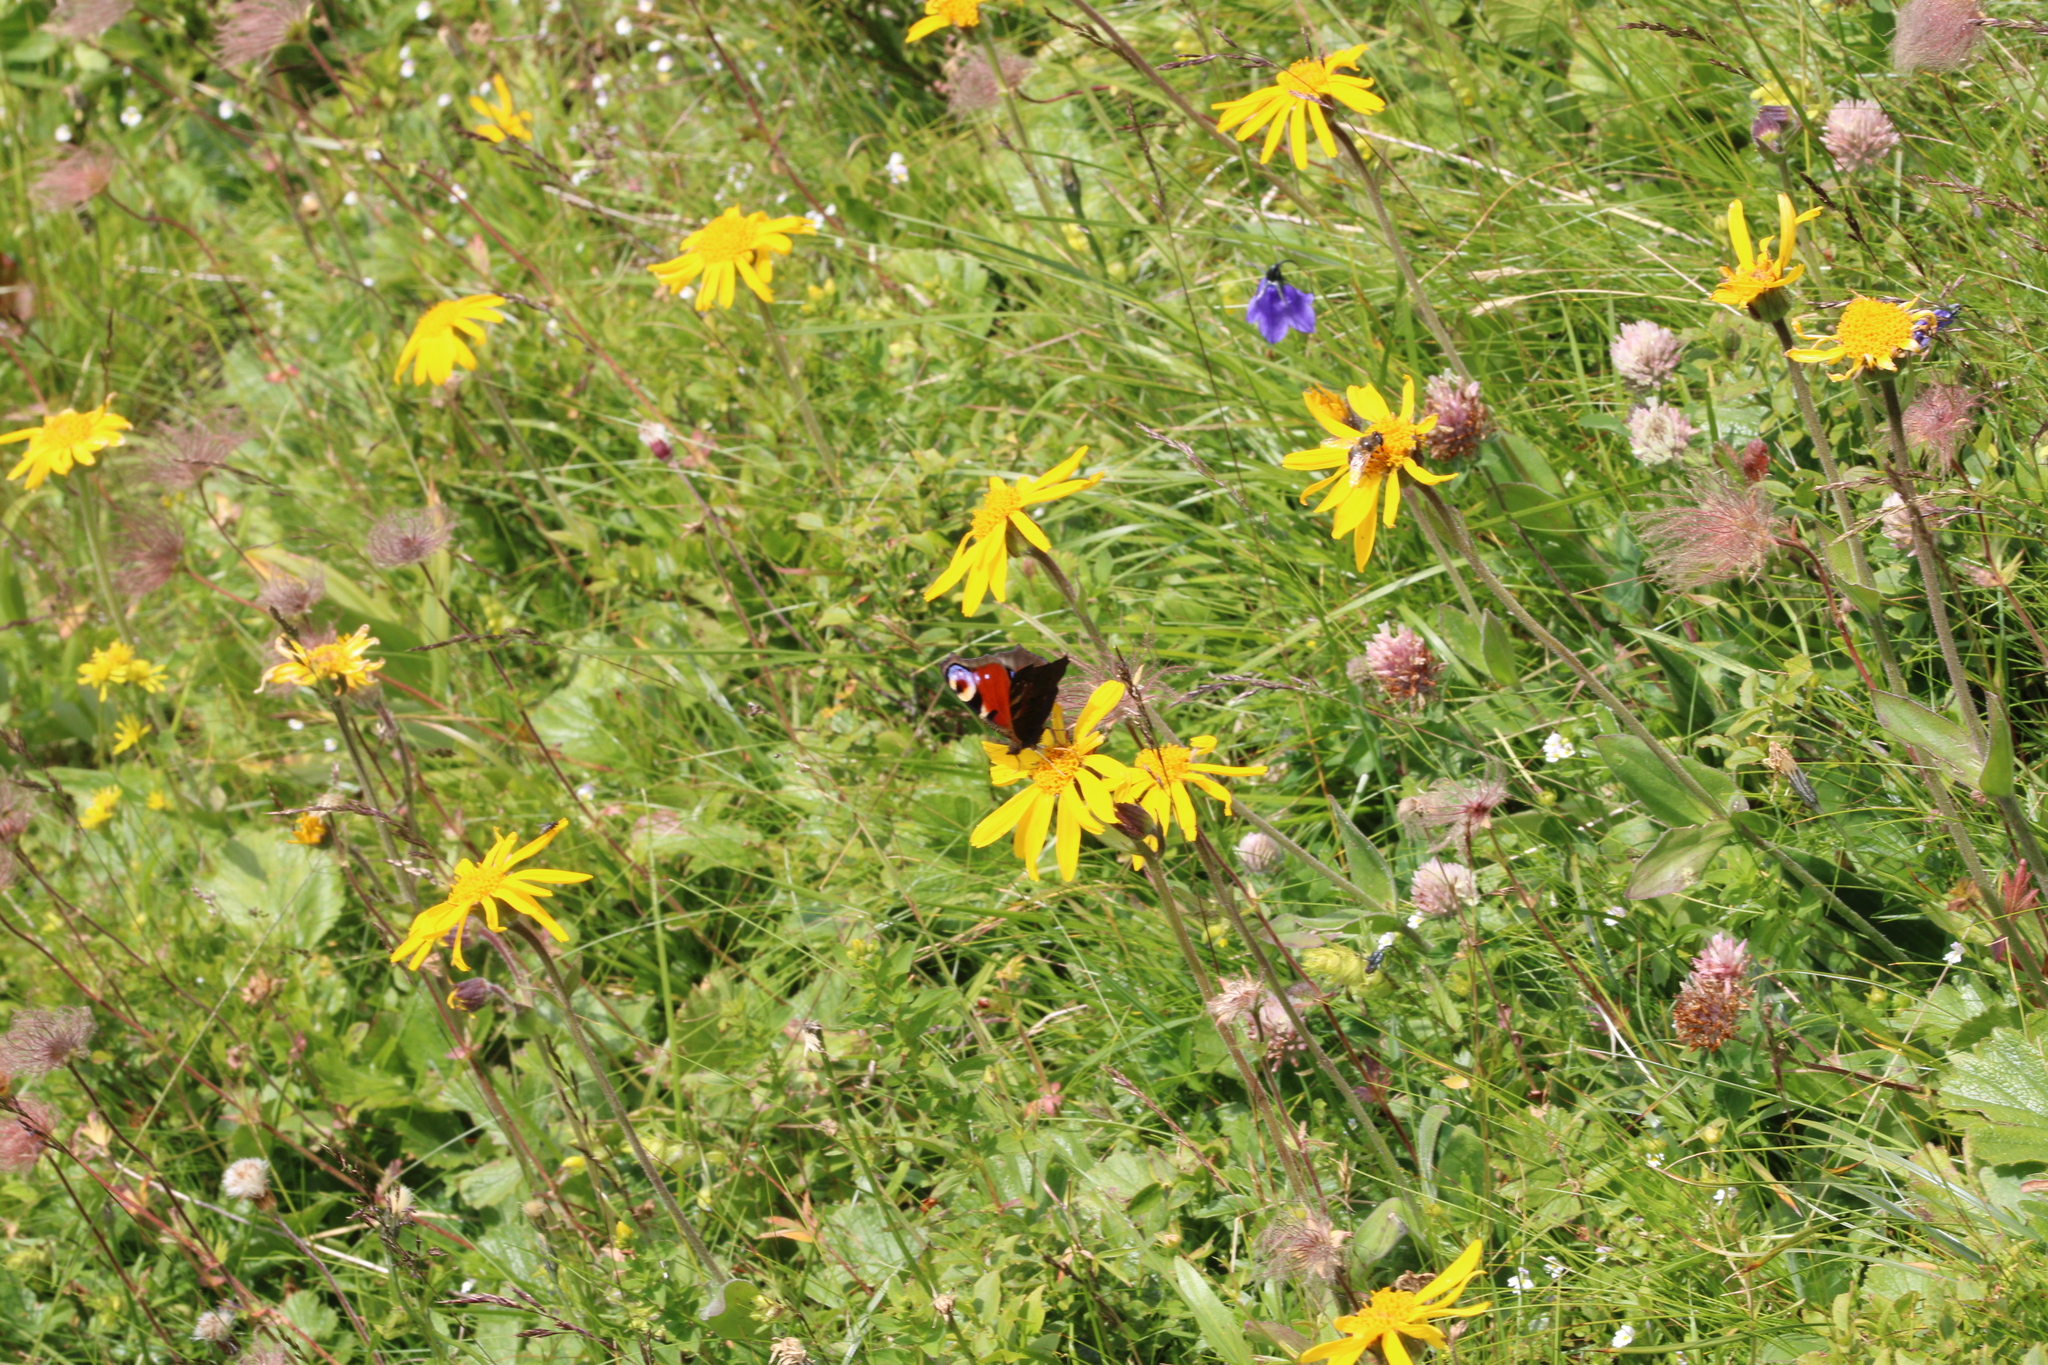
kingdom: Animalia
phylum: Arthropoda
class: Insecta
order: Lepidoptera
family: Nymphalidae
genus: Aglais
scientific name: Aglais io
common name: Peacock
